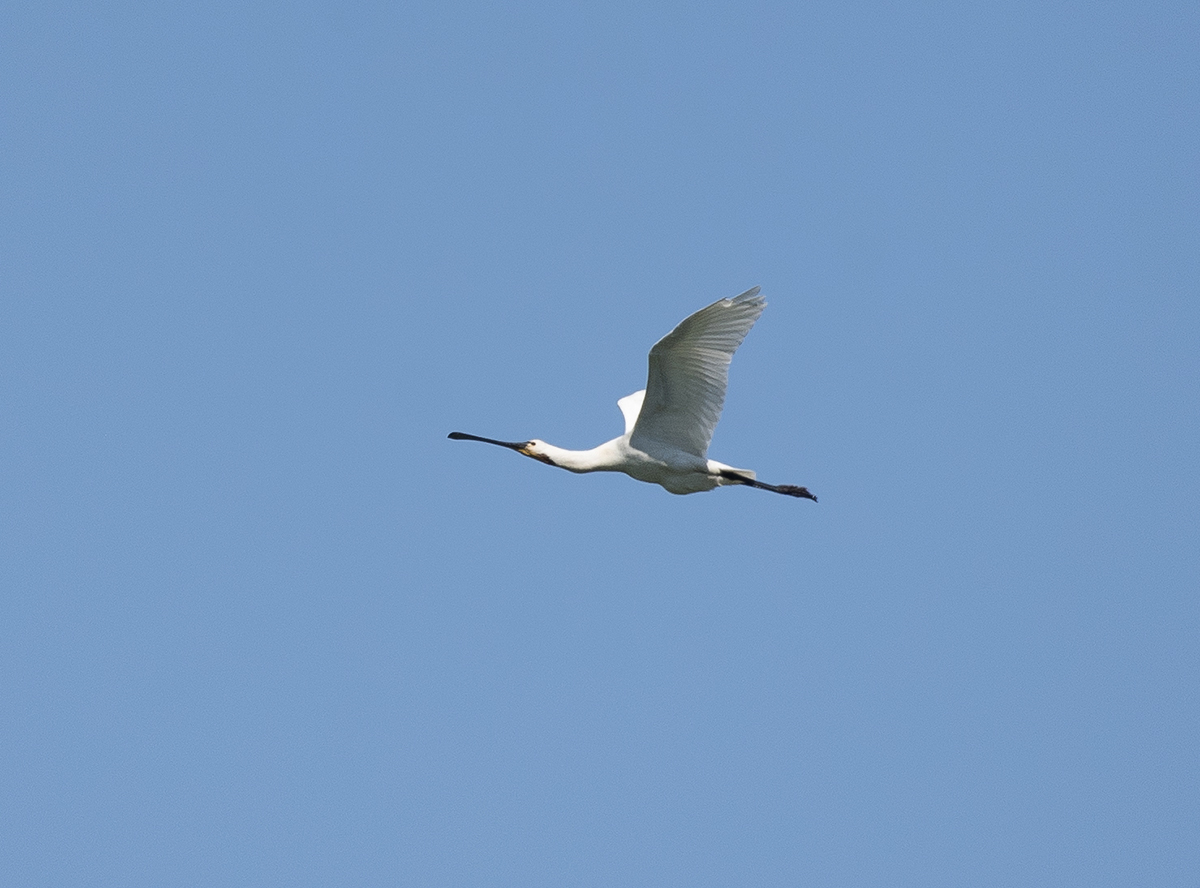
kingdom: Animalia
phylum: Chordata
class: Aves
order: Pelecaniformes
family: Threskiornithidae
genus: Platalea
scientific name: Platalea leucorodia
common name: Eurasian spoonbill
